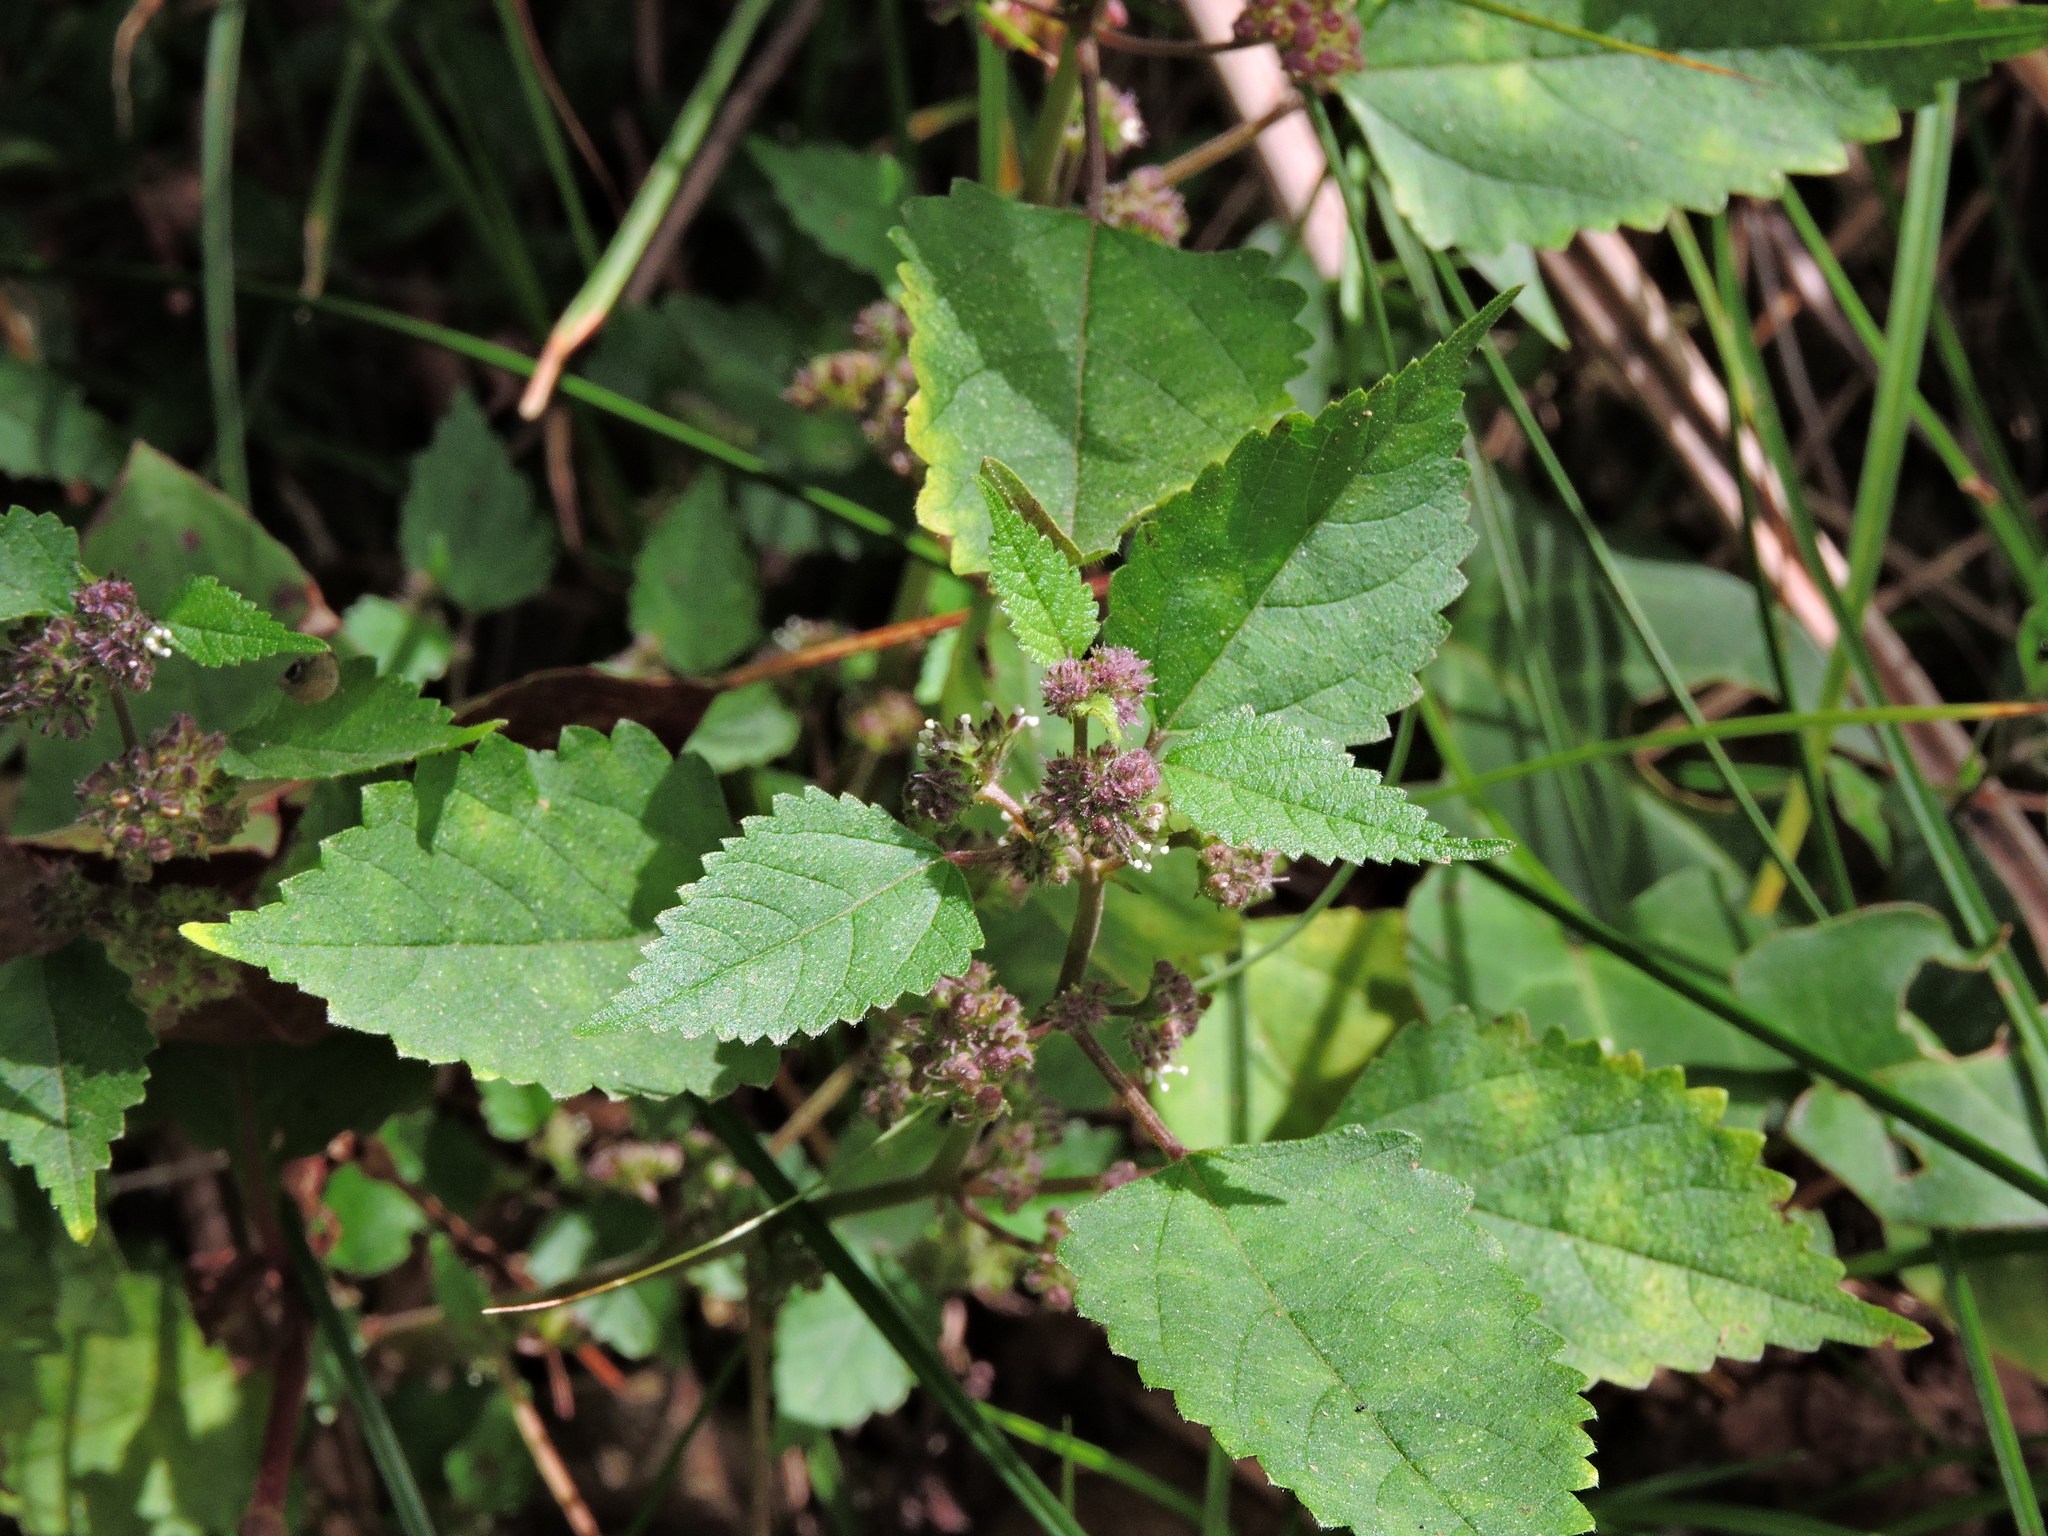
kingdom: Plantae
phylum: Tracheophyta
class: Magnoliopsida
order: Rosales
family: Moraceae
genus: Fatoua
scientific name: Fatoua villosa
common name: Hairy crabweed
